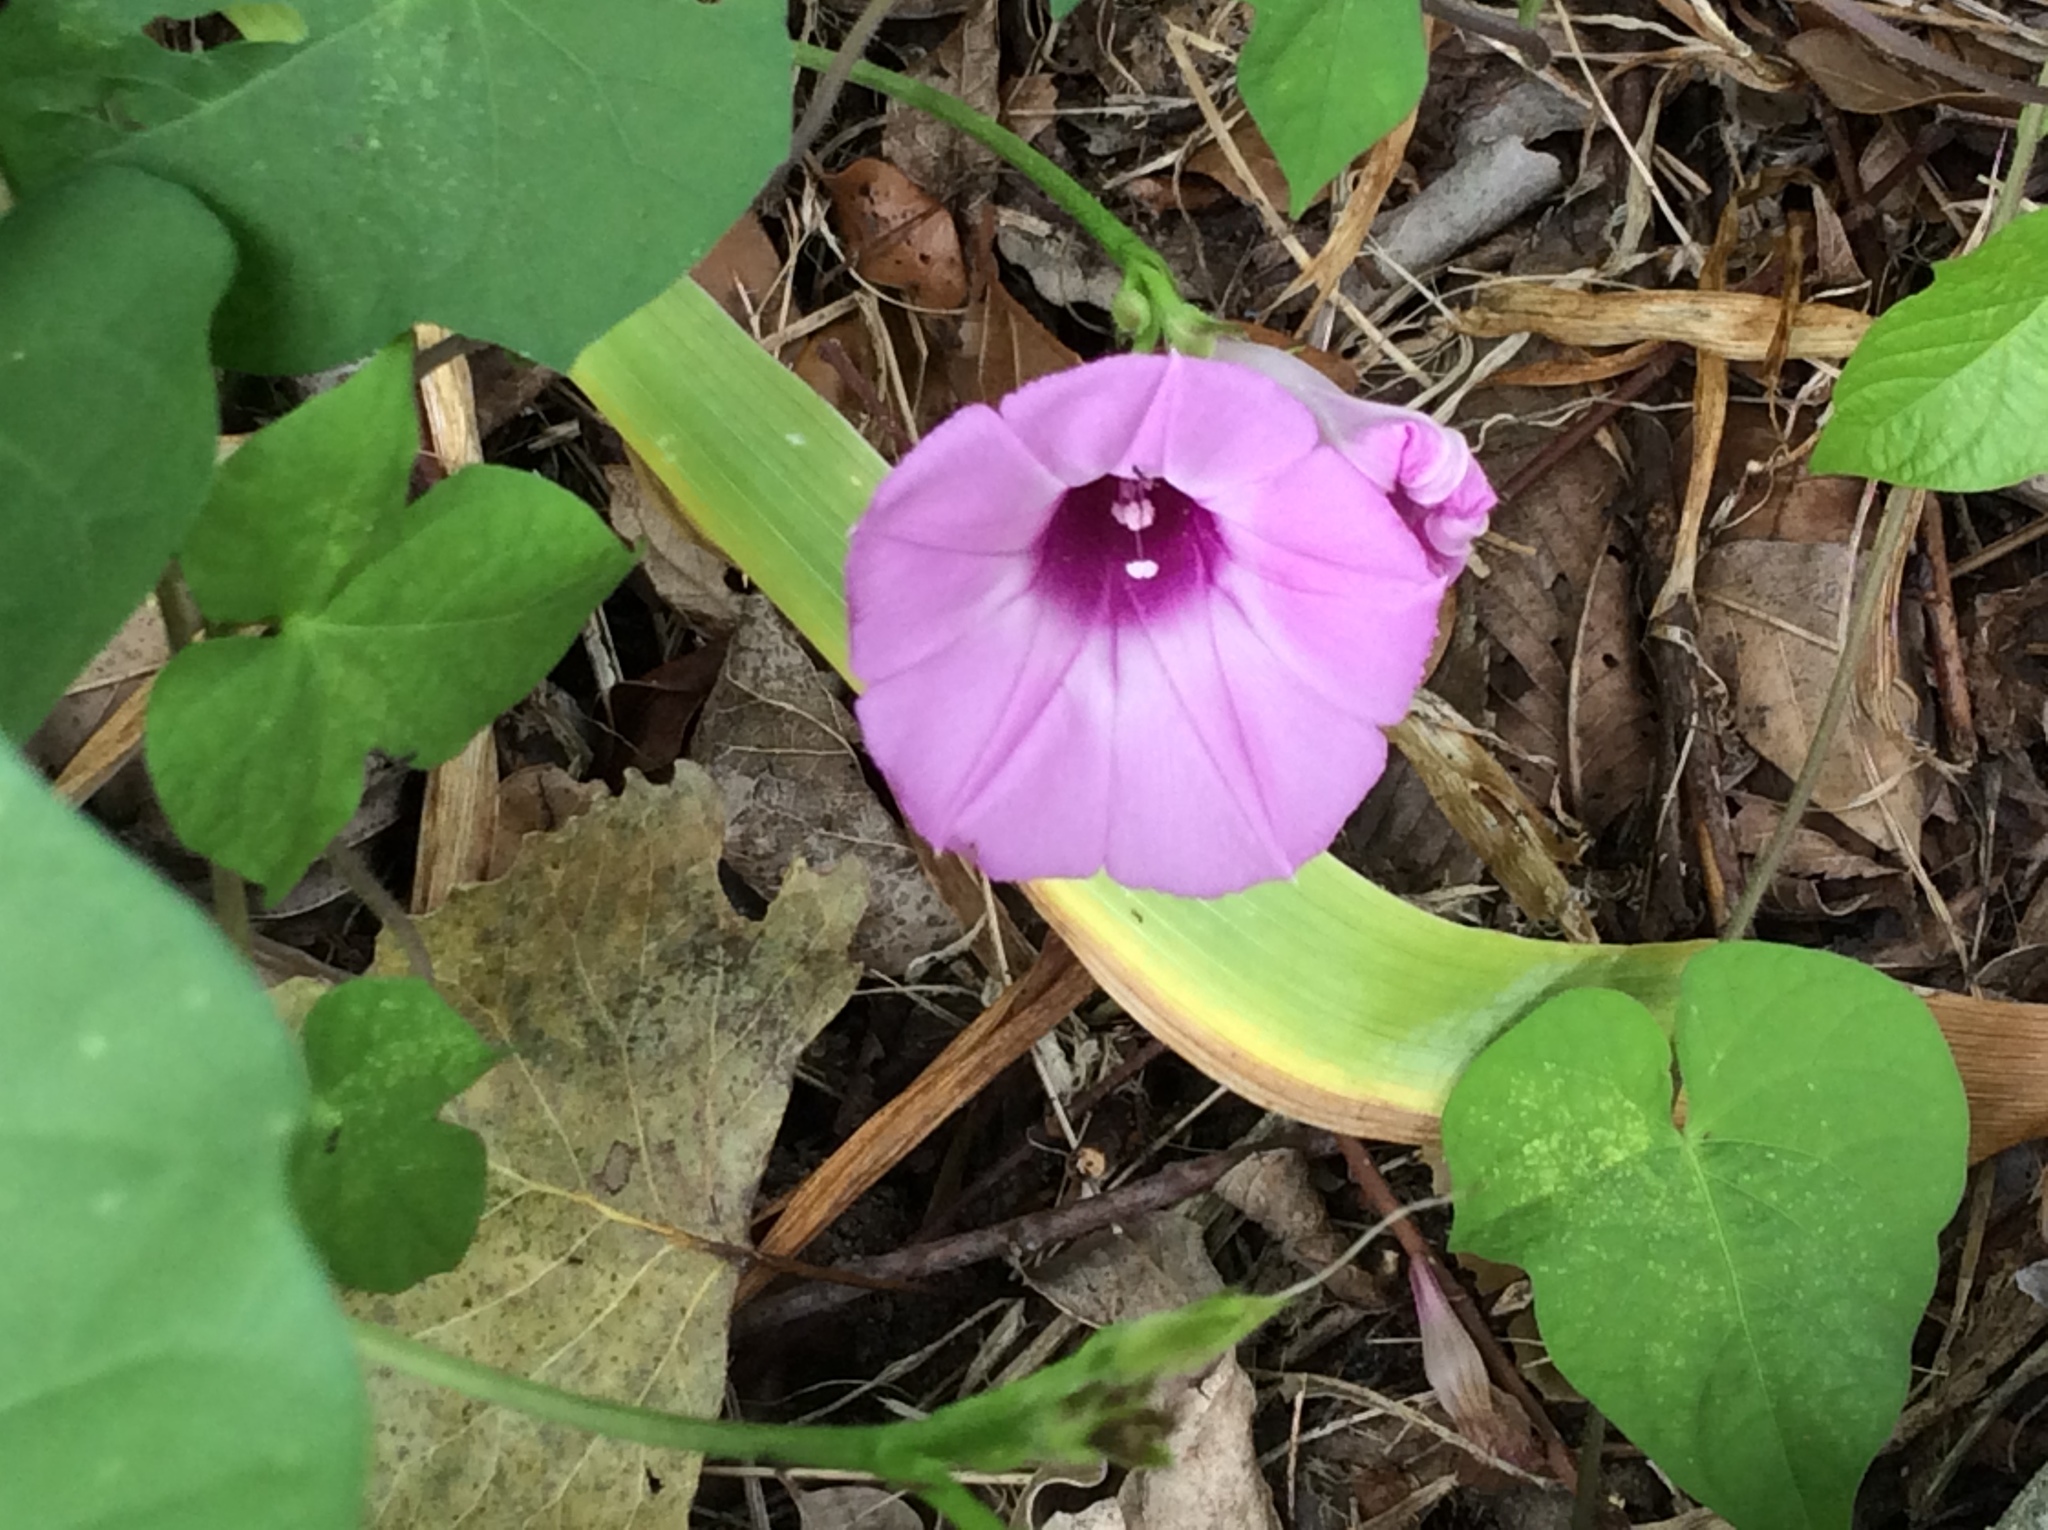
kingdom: Plantae
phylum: Tracheophyta
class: Magnoliopsida
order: Solanales
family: Convolvulaceae
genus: Ipomoea
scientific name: Ipomoea cordatotriloba
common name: Cotton morning glory
